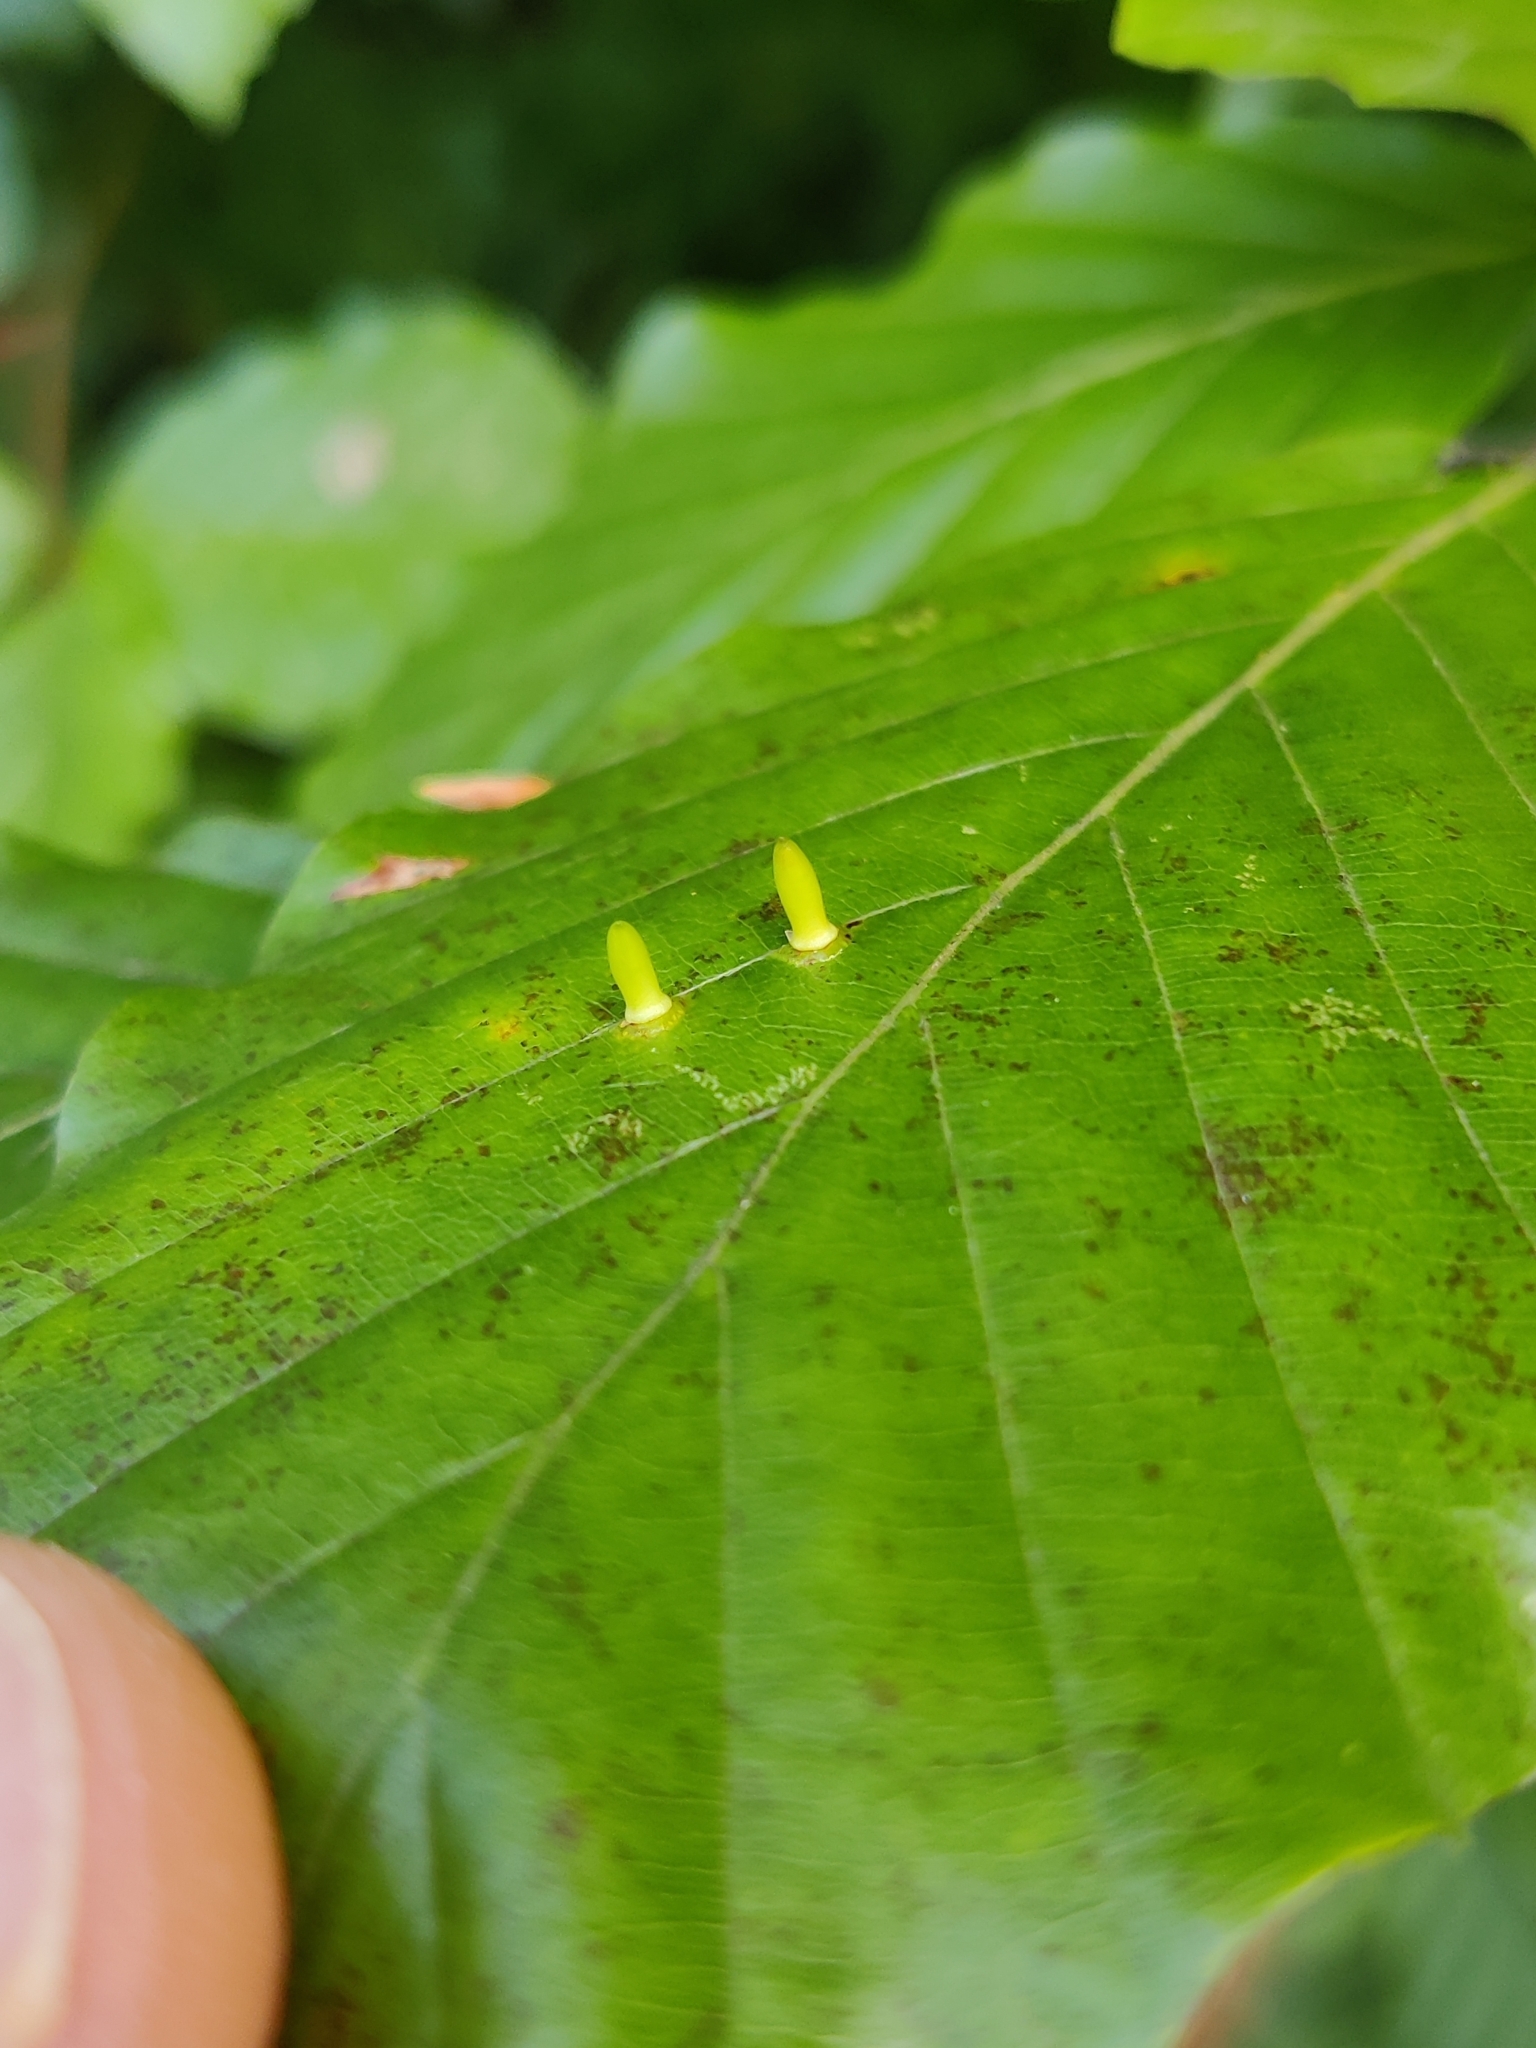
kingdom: Animalia
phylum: Arthropoda
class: Insecta
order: Diptera
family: Cecidomyiidae
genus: Mikiola
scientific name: Mikiola fagi
